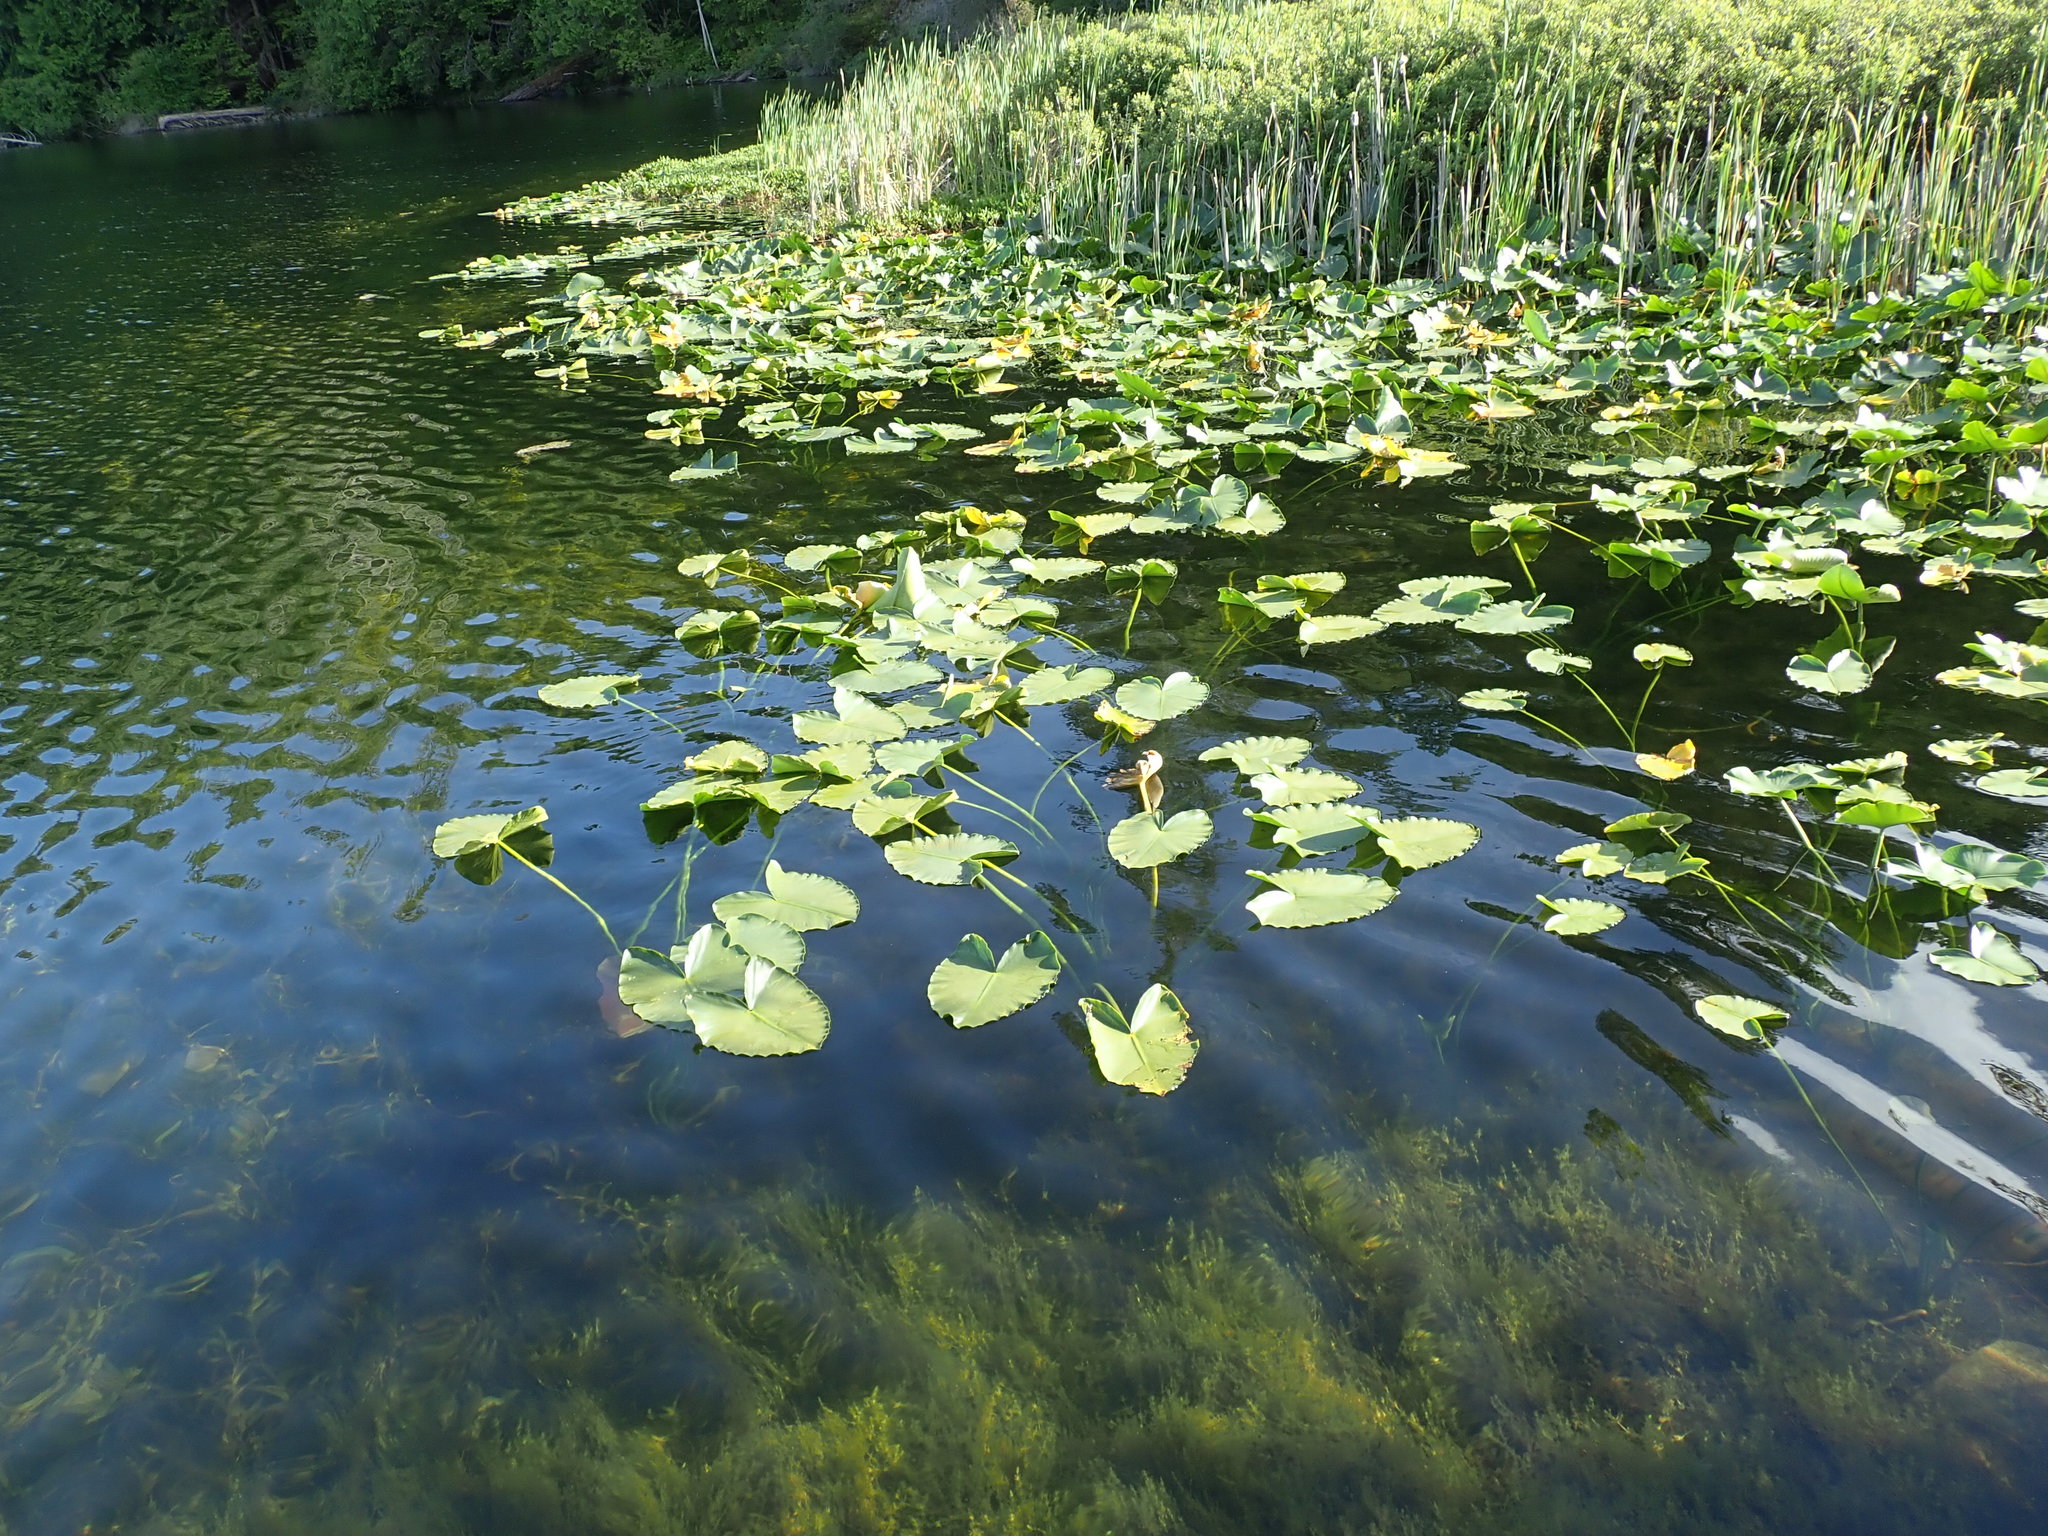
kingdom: Plantae
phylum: Tracheophyta
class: Magnoliopsida
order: Nymphaeales
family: Nymphaeaceae
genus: Nuphar
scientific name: Nuphar polysepala
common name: Rocky mountain cow-lily
